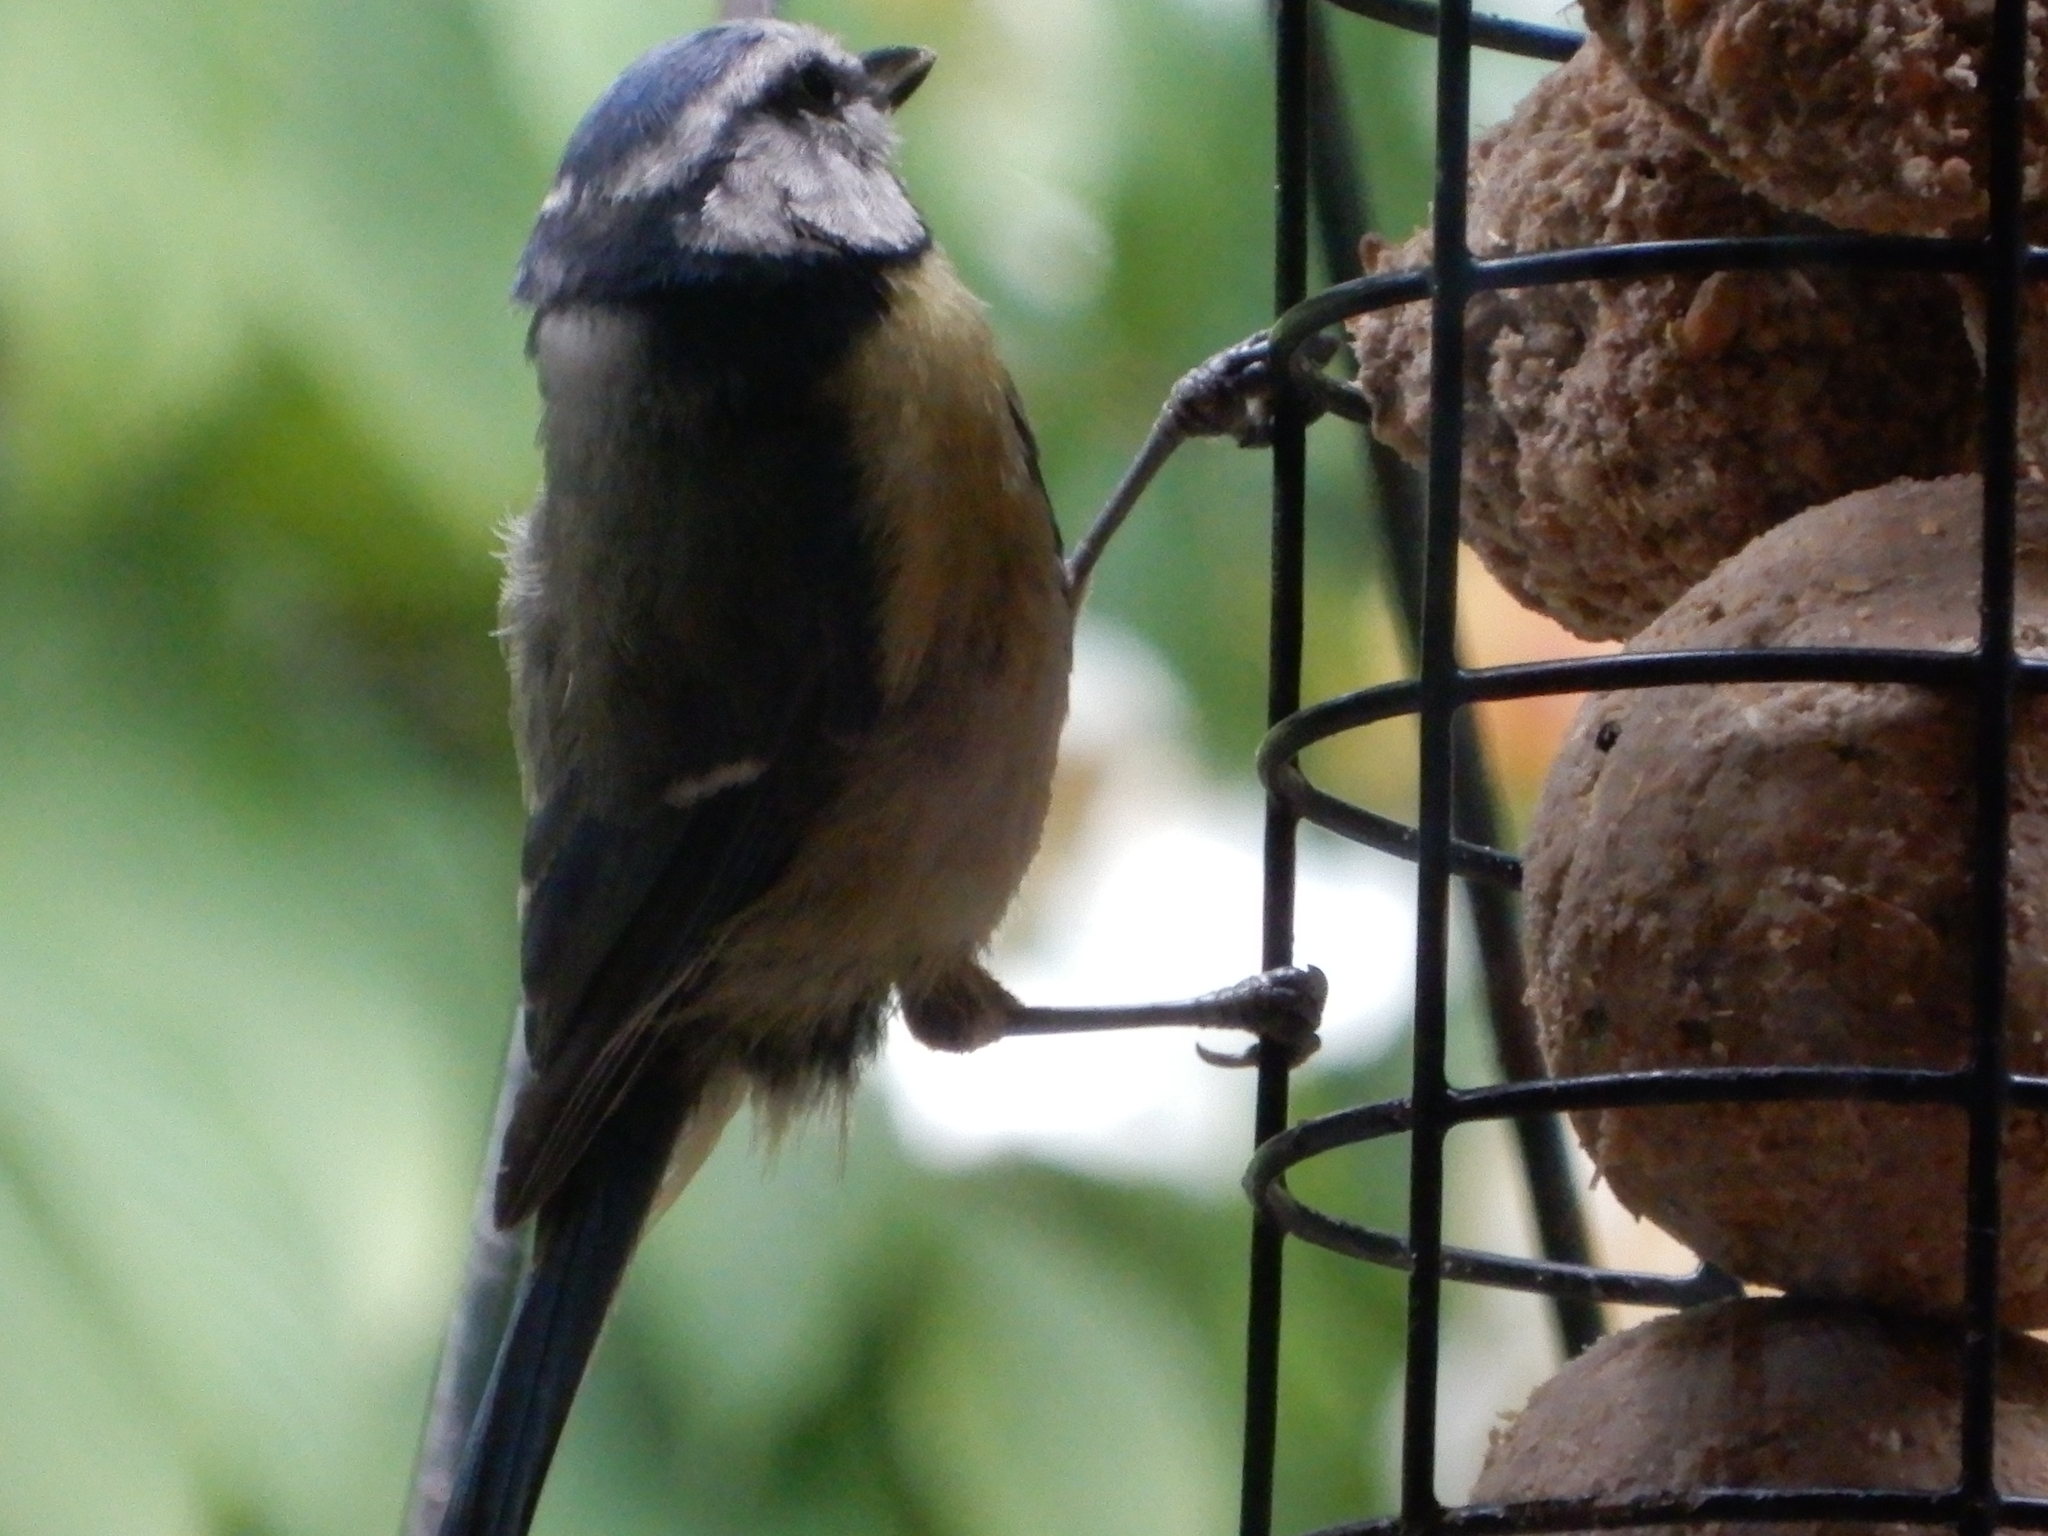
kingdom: Animalia
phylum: Chordata
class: Aves
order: Passeriformes
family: Paridae
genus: Cyanistes
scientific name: Cyanistes caeruleus
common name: Eurasian blue tit
